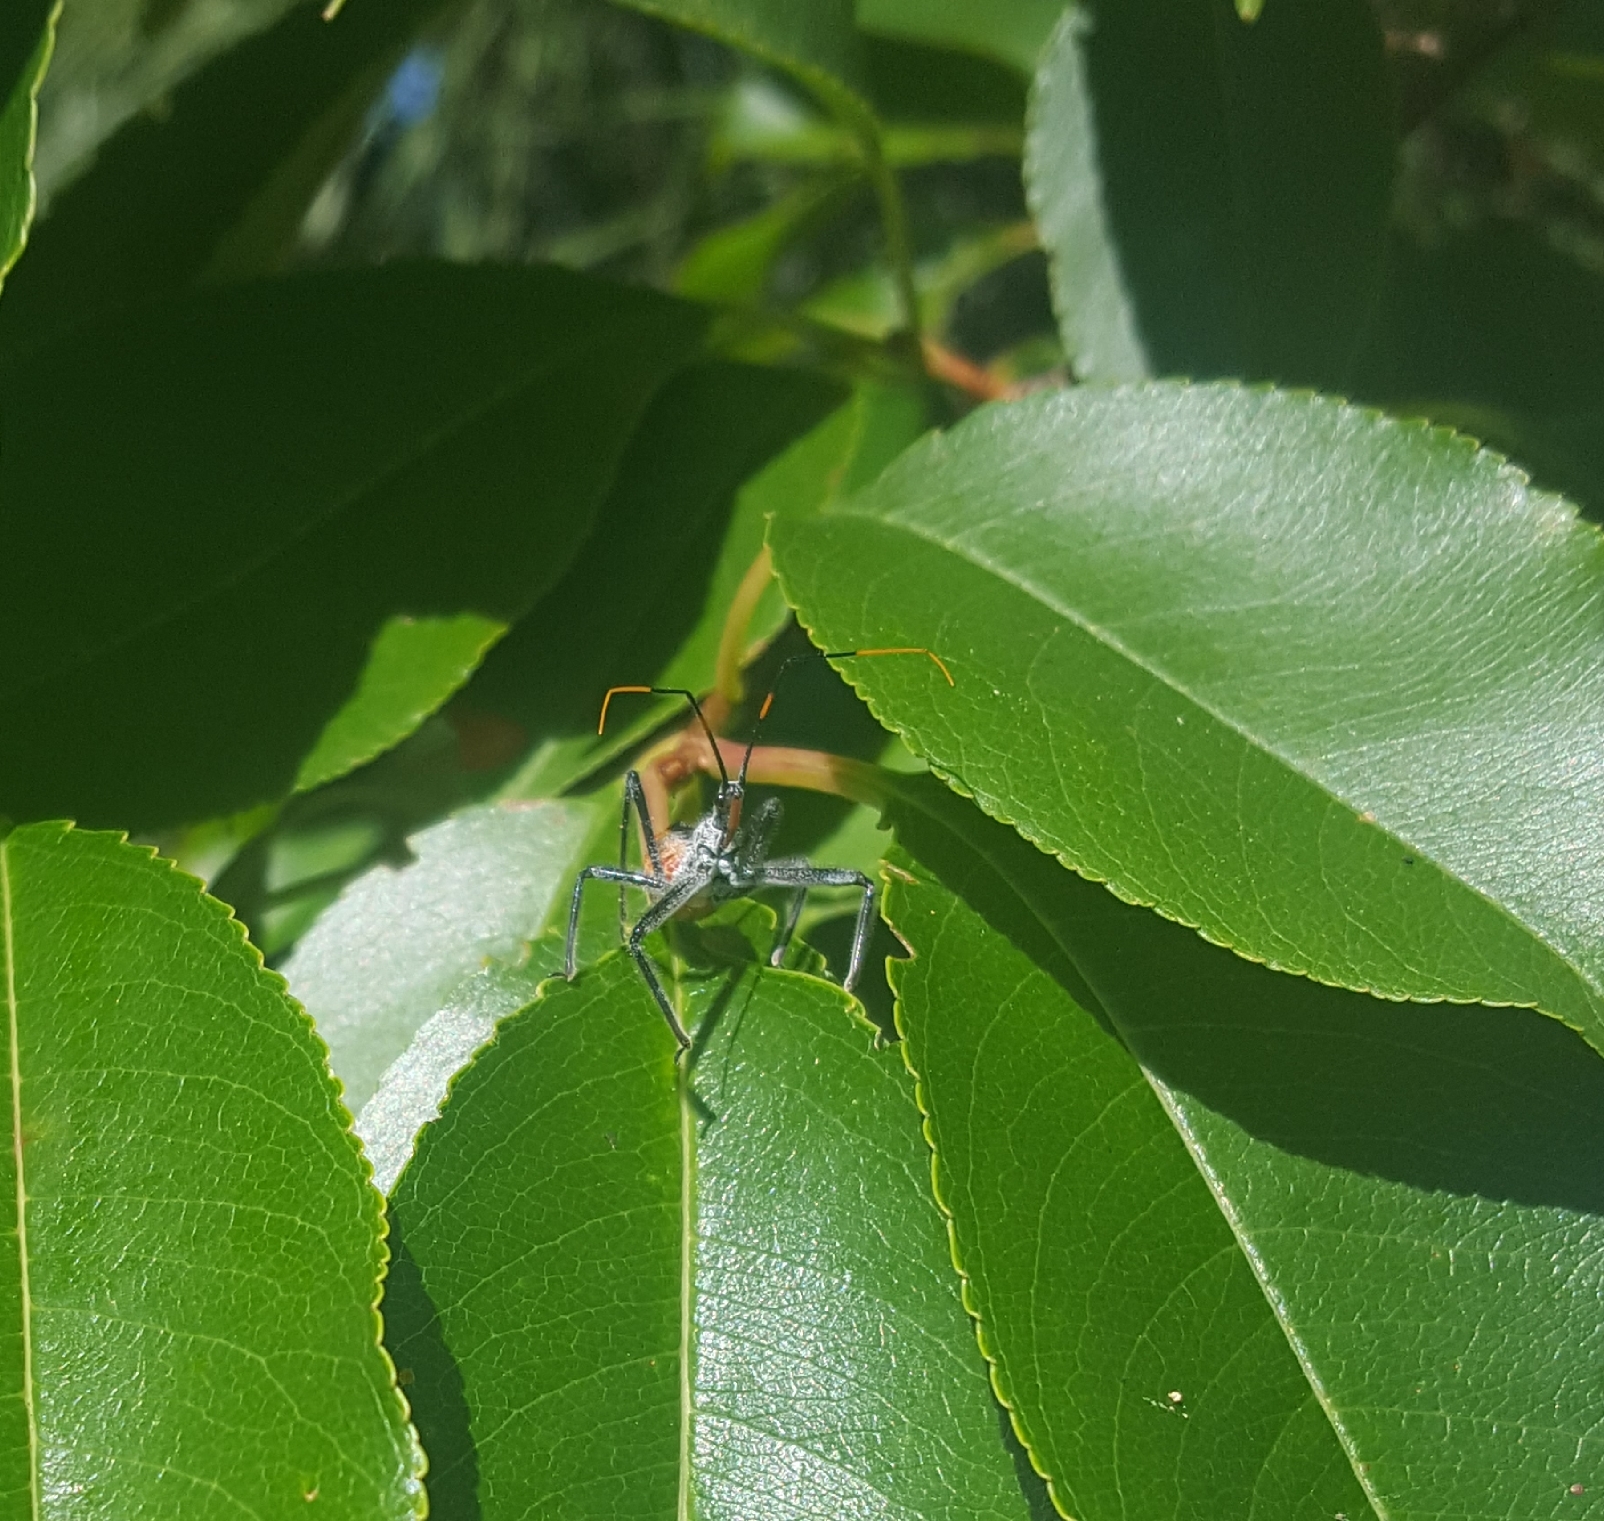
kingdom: Animalia
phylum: Arthropoda
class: Insecta
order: Hemiptera
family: Reduviidae
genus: Arilus
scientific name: Arilus cristatus
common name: North american wheel bug
